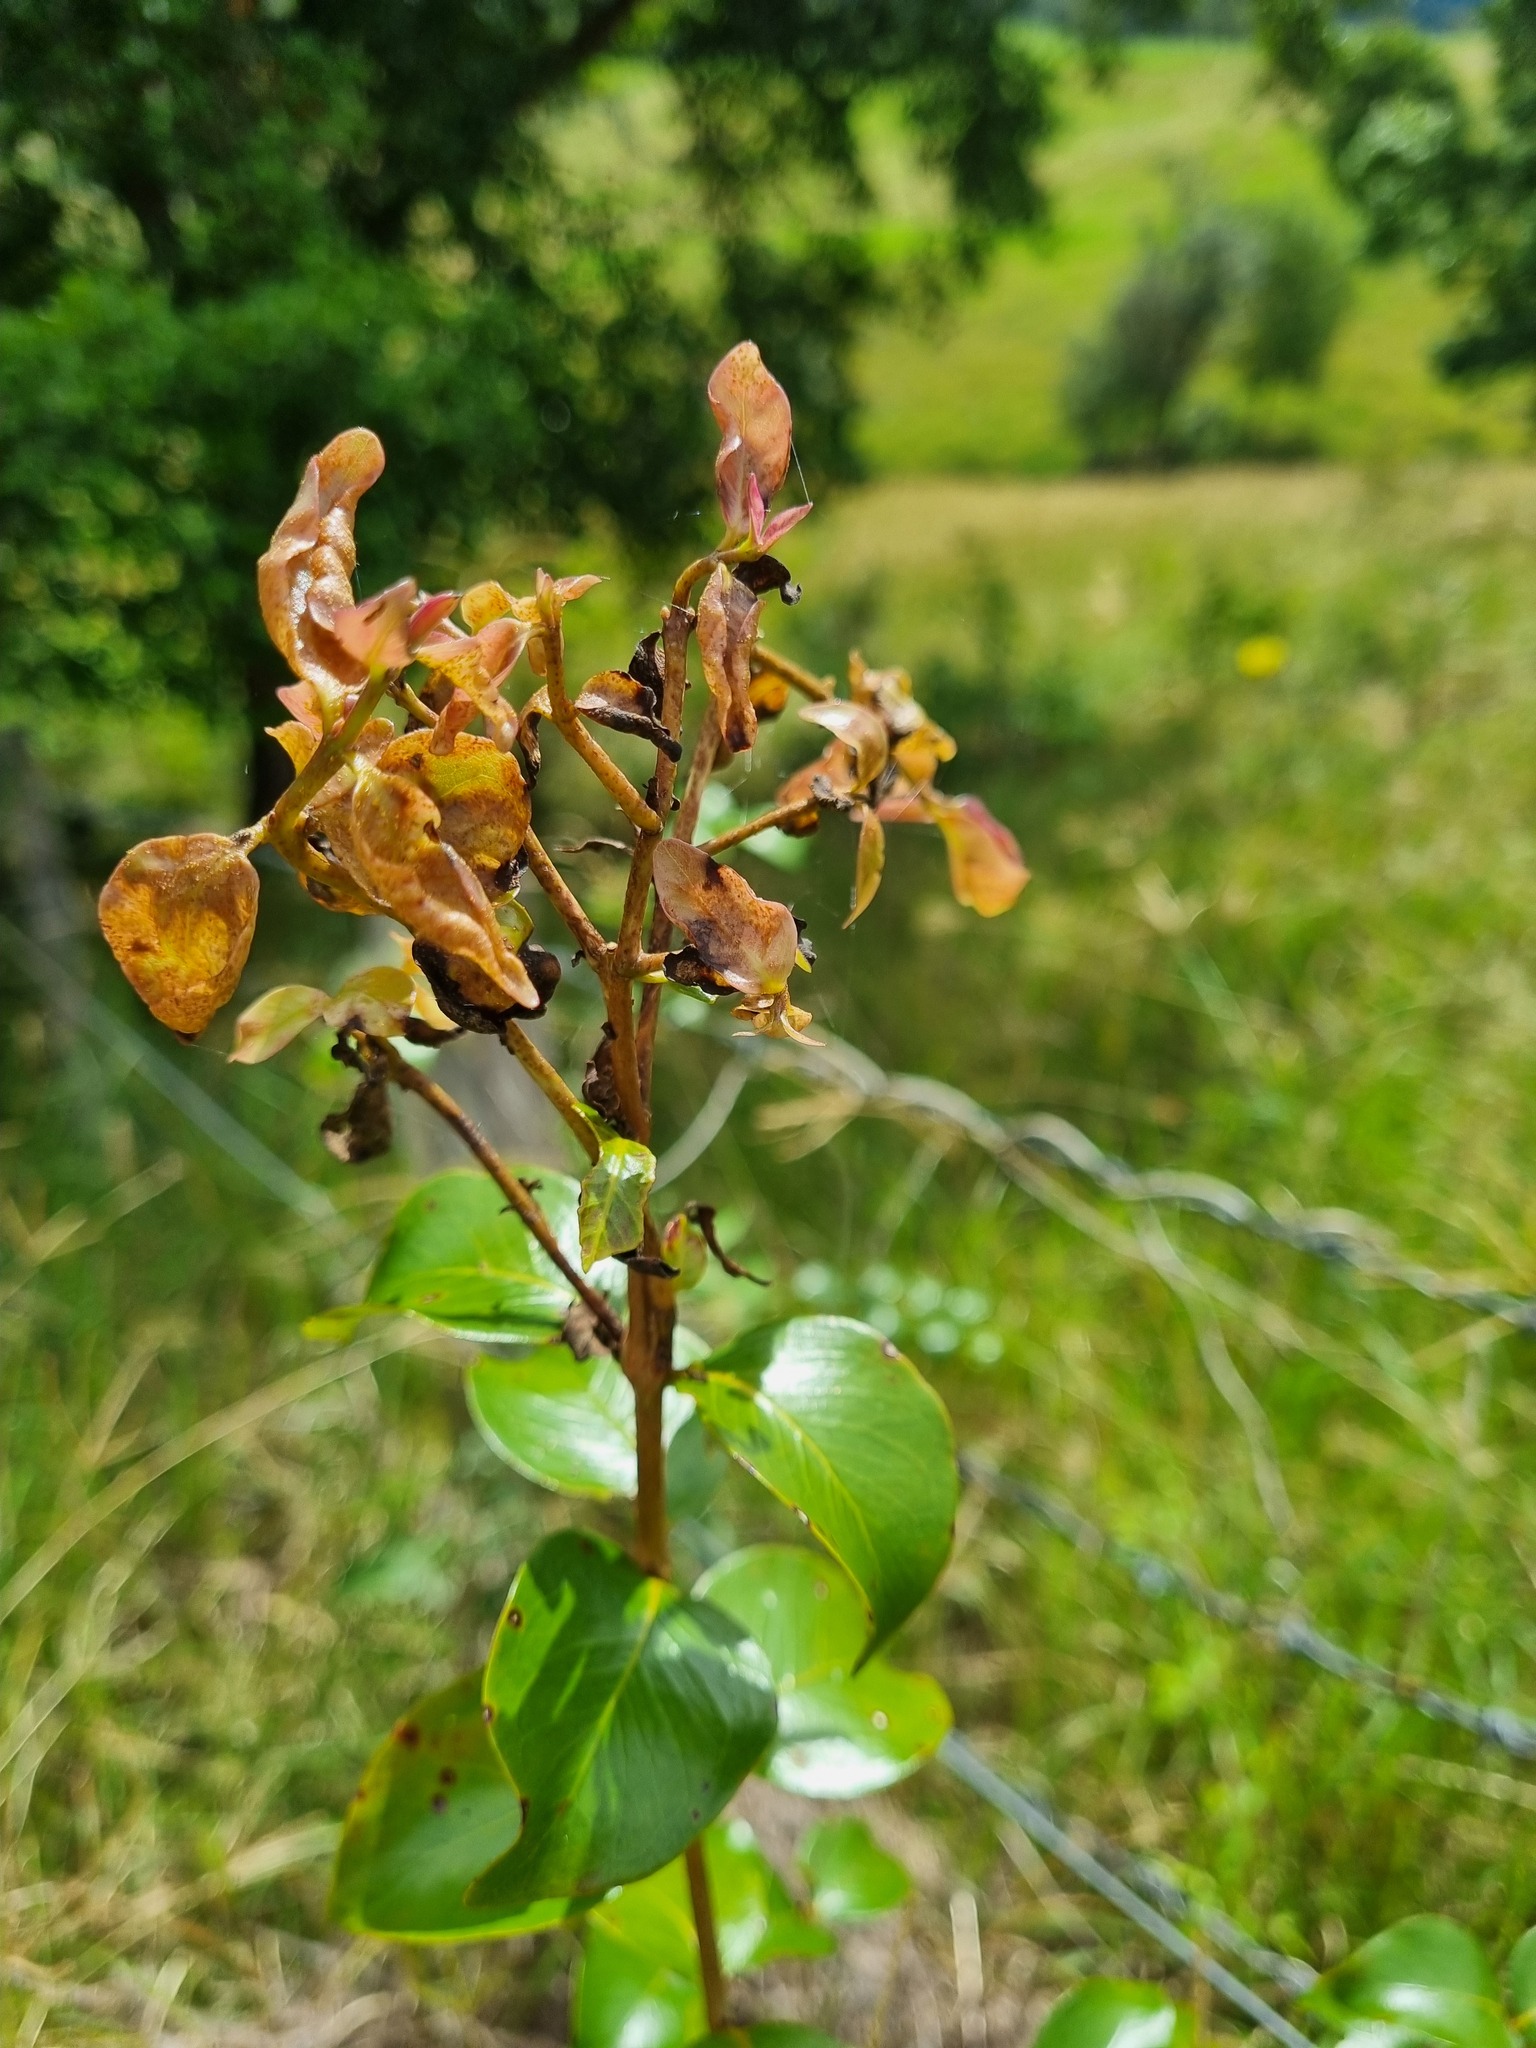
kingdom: Fungi
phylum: Basidiomycota
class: Pucciniomycetes
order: Pucciniales
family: Sphaerophragmiaceae
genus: Austropuccinia
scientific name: Austropuccinia psidii
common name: Myrtle rust
